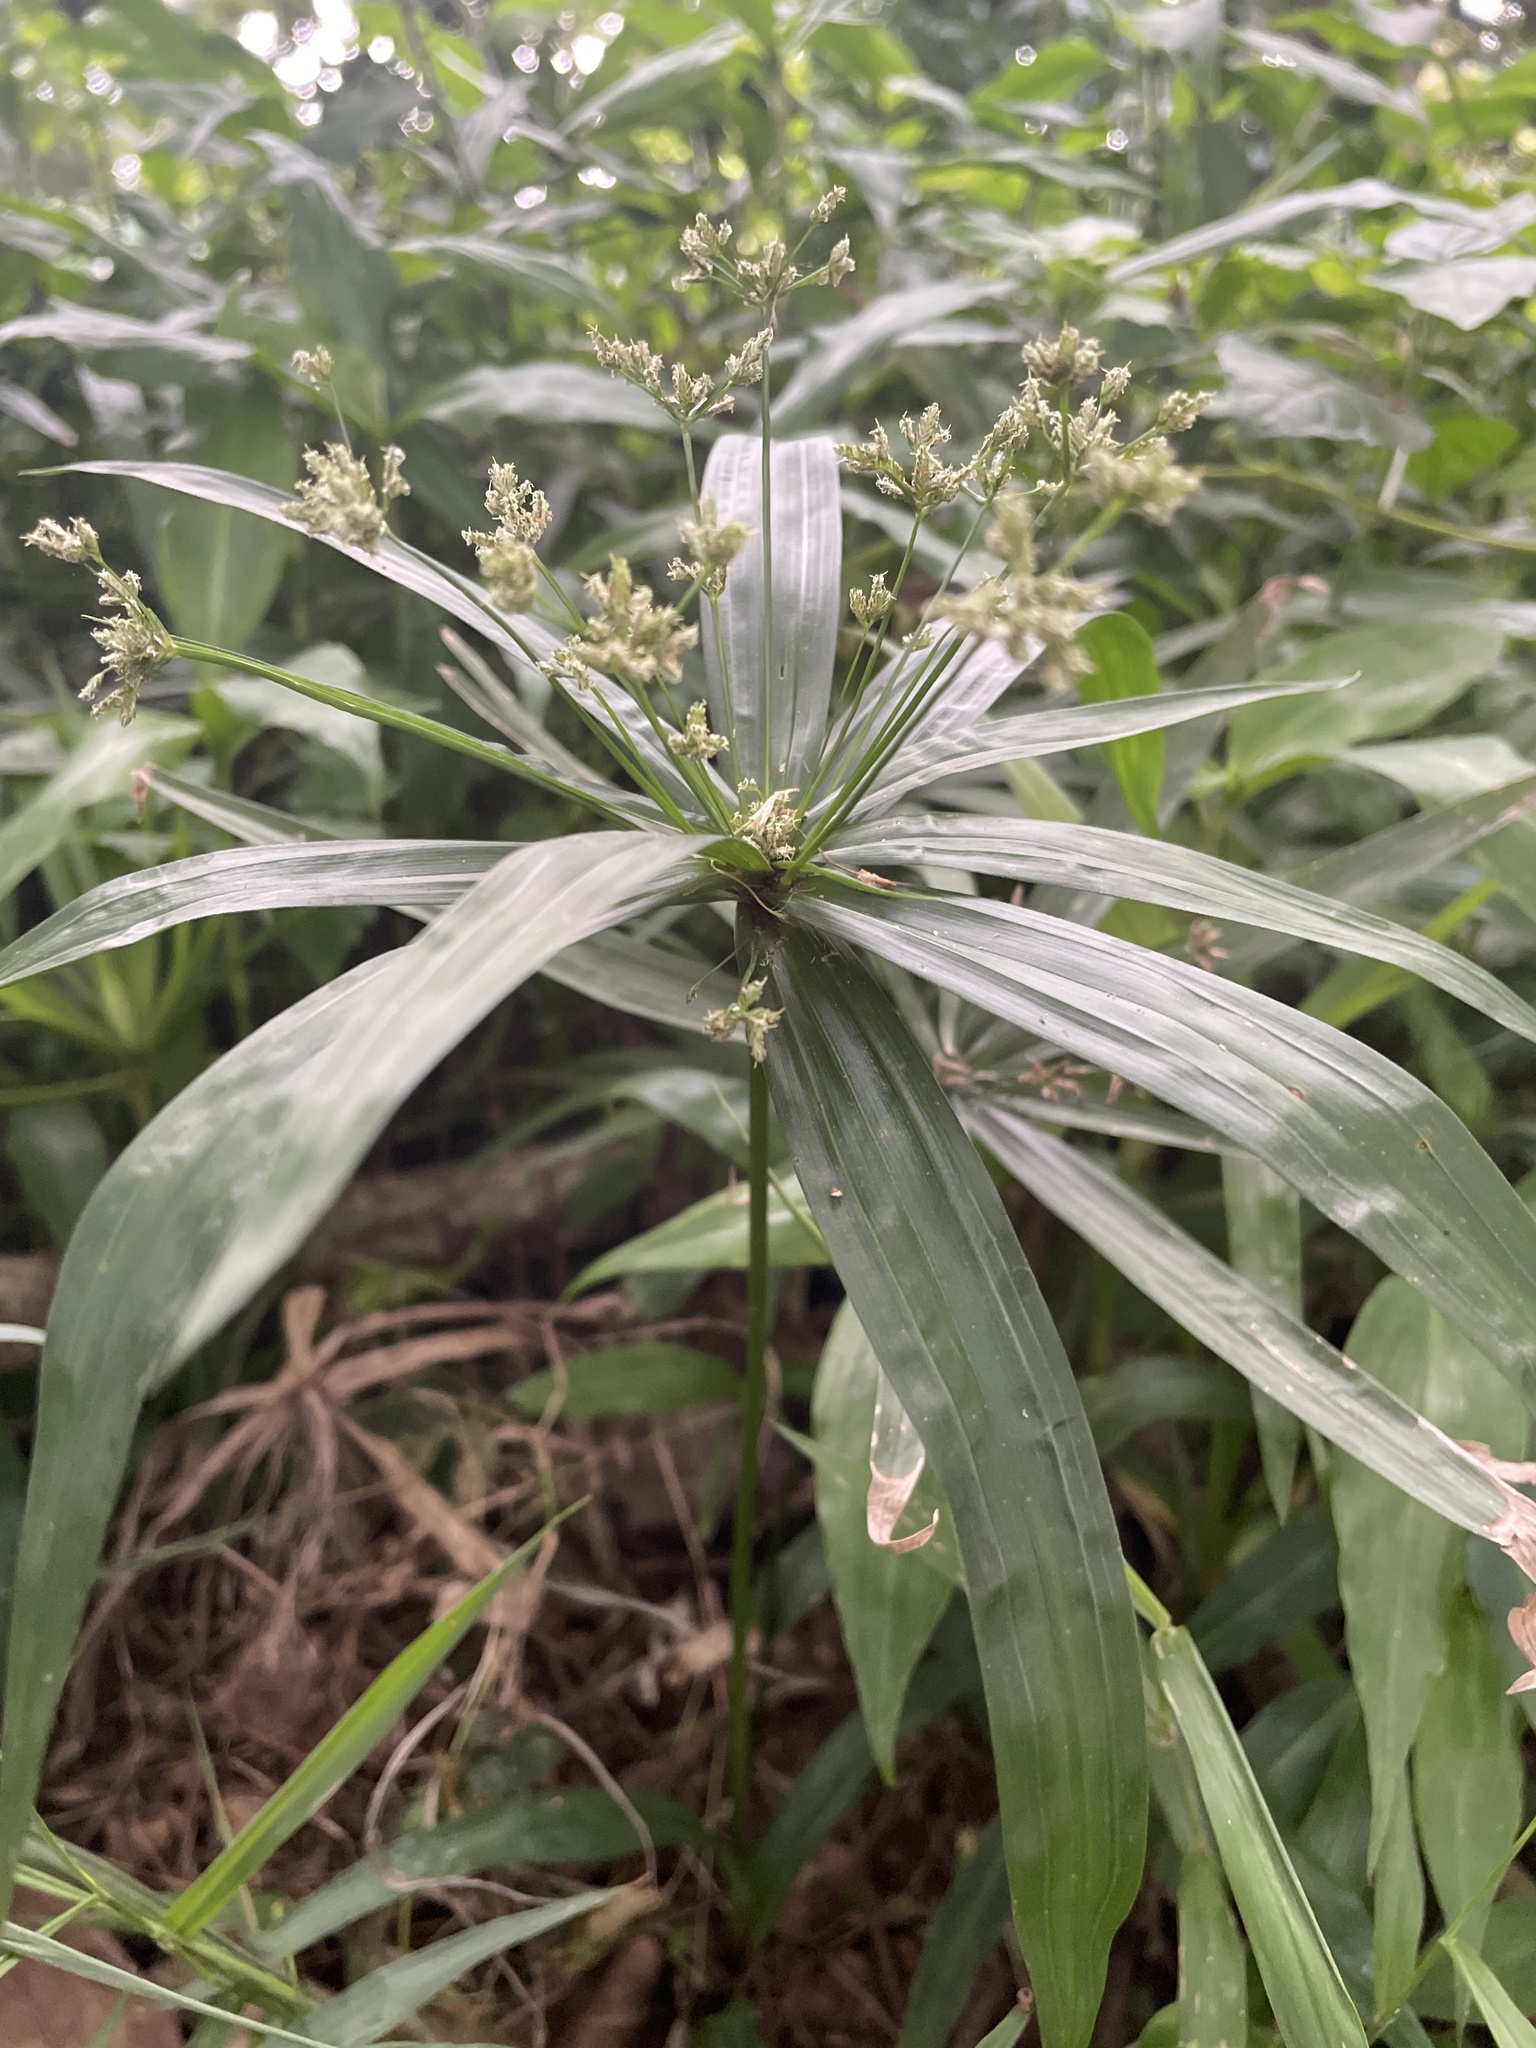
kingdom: Plantae
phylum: Tracheophyta
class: Liliopsida
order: Poales
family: Cyperaceae
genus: Cyperus
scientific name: Cyperus albostriatus
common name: Dwarf umbrella-grass
